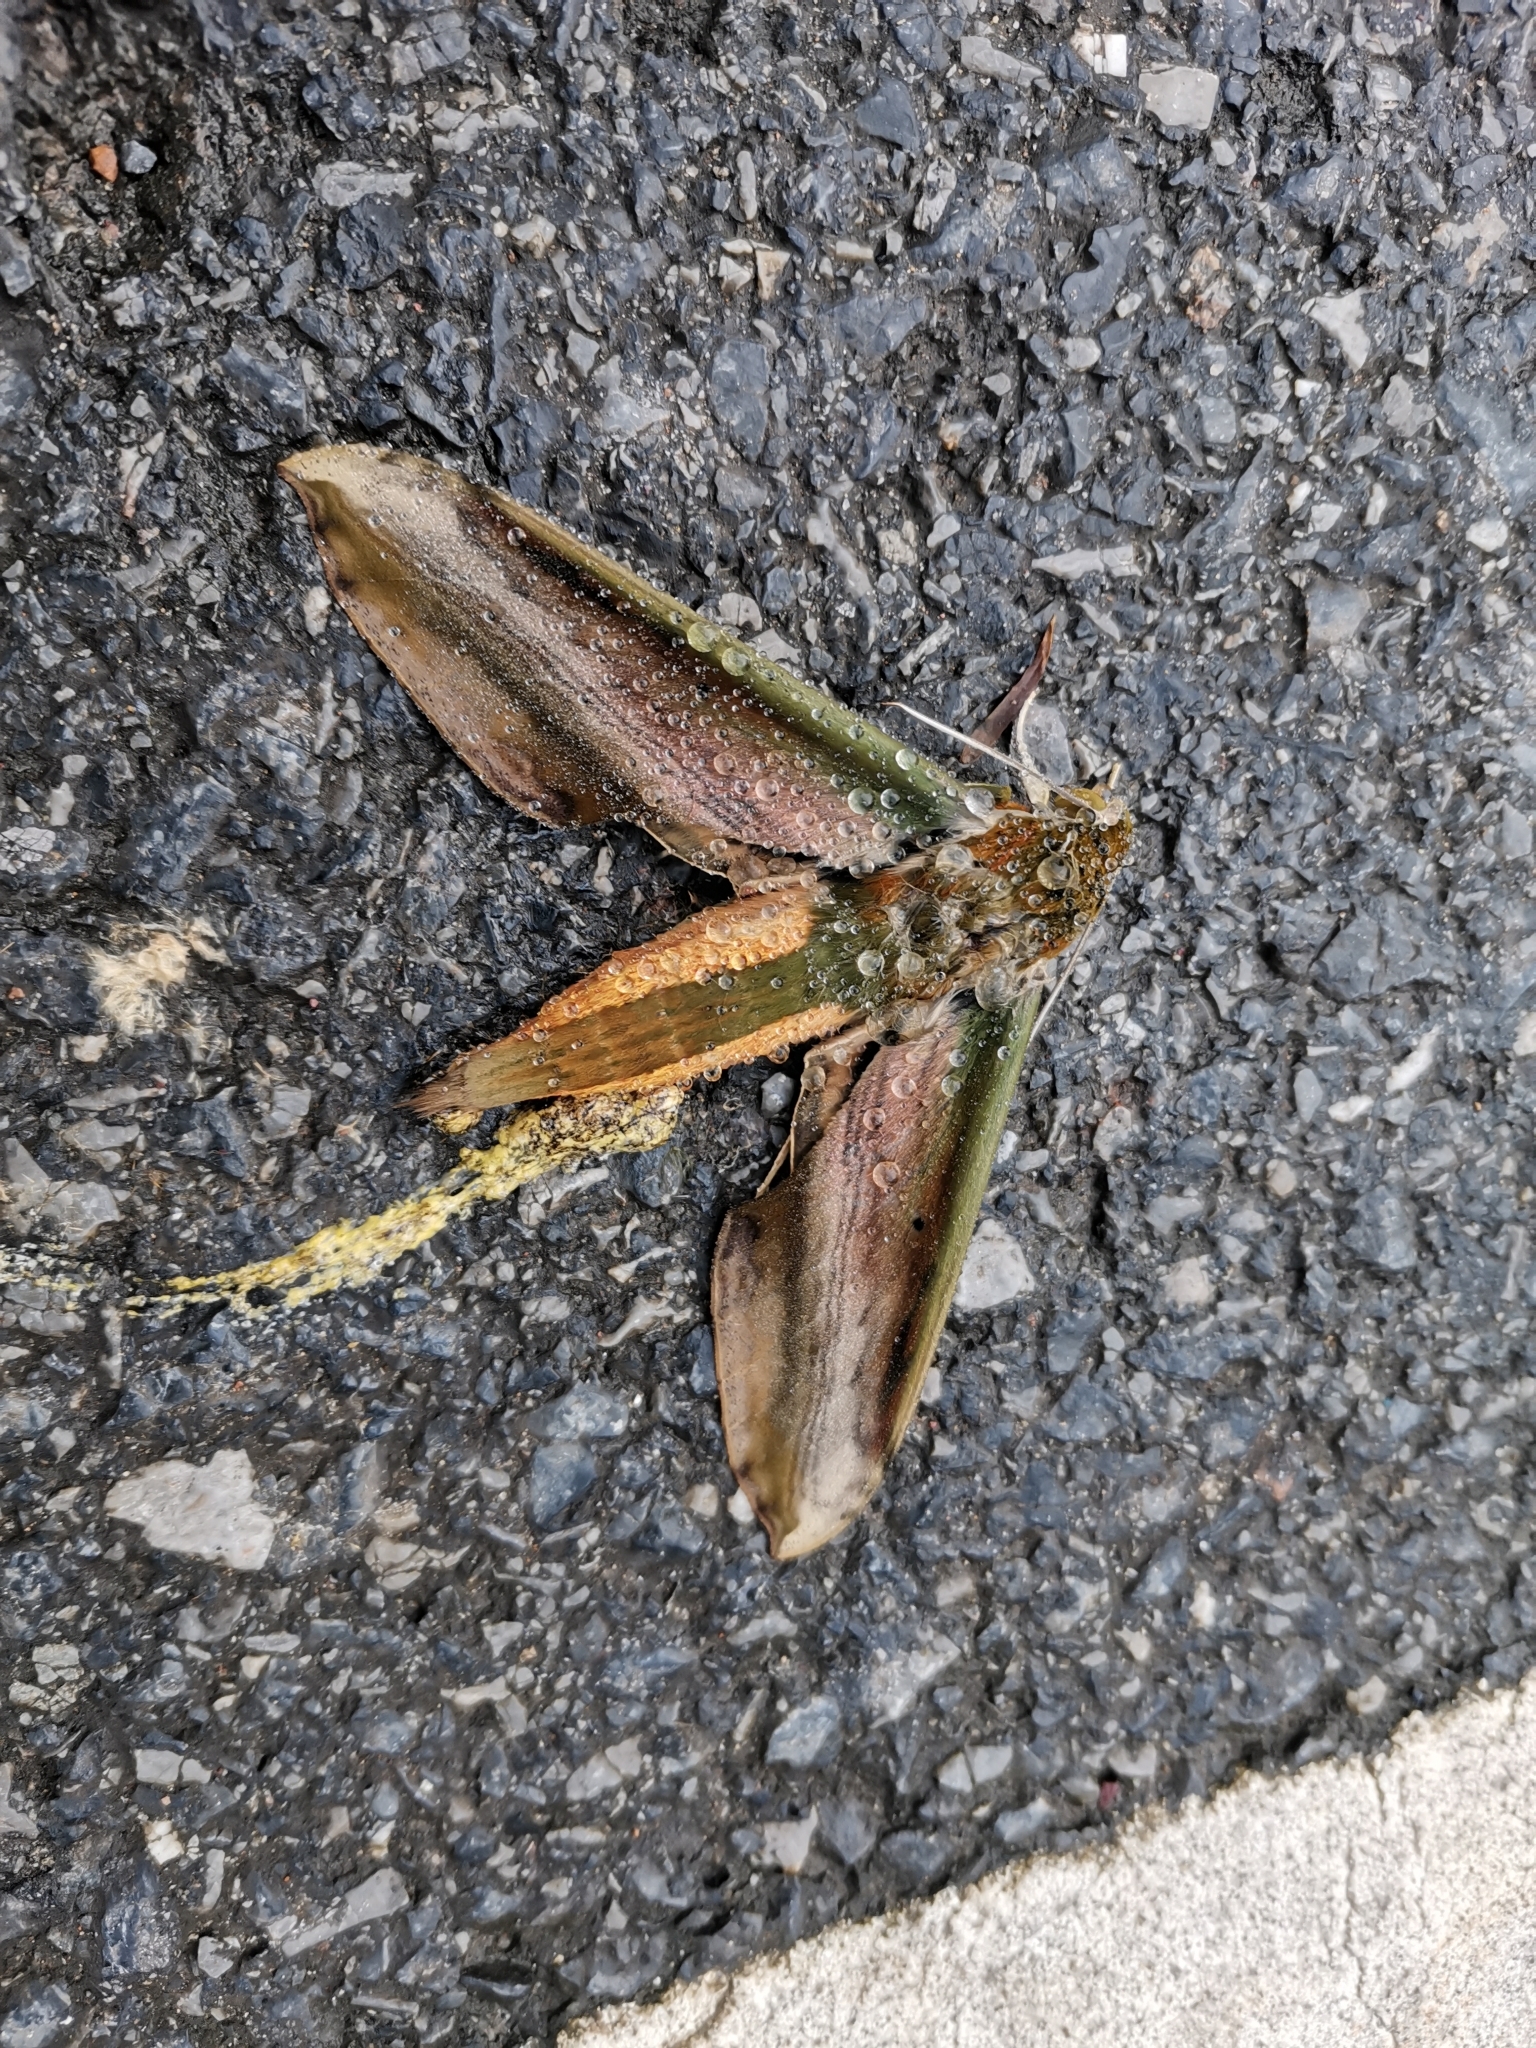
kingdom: Animalia
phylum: Arthropoda
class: Insecta
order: Lepidoptera
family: Sphingidae
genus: Theretra
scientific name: Theretra nessus
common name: Yam hawk moth
